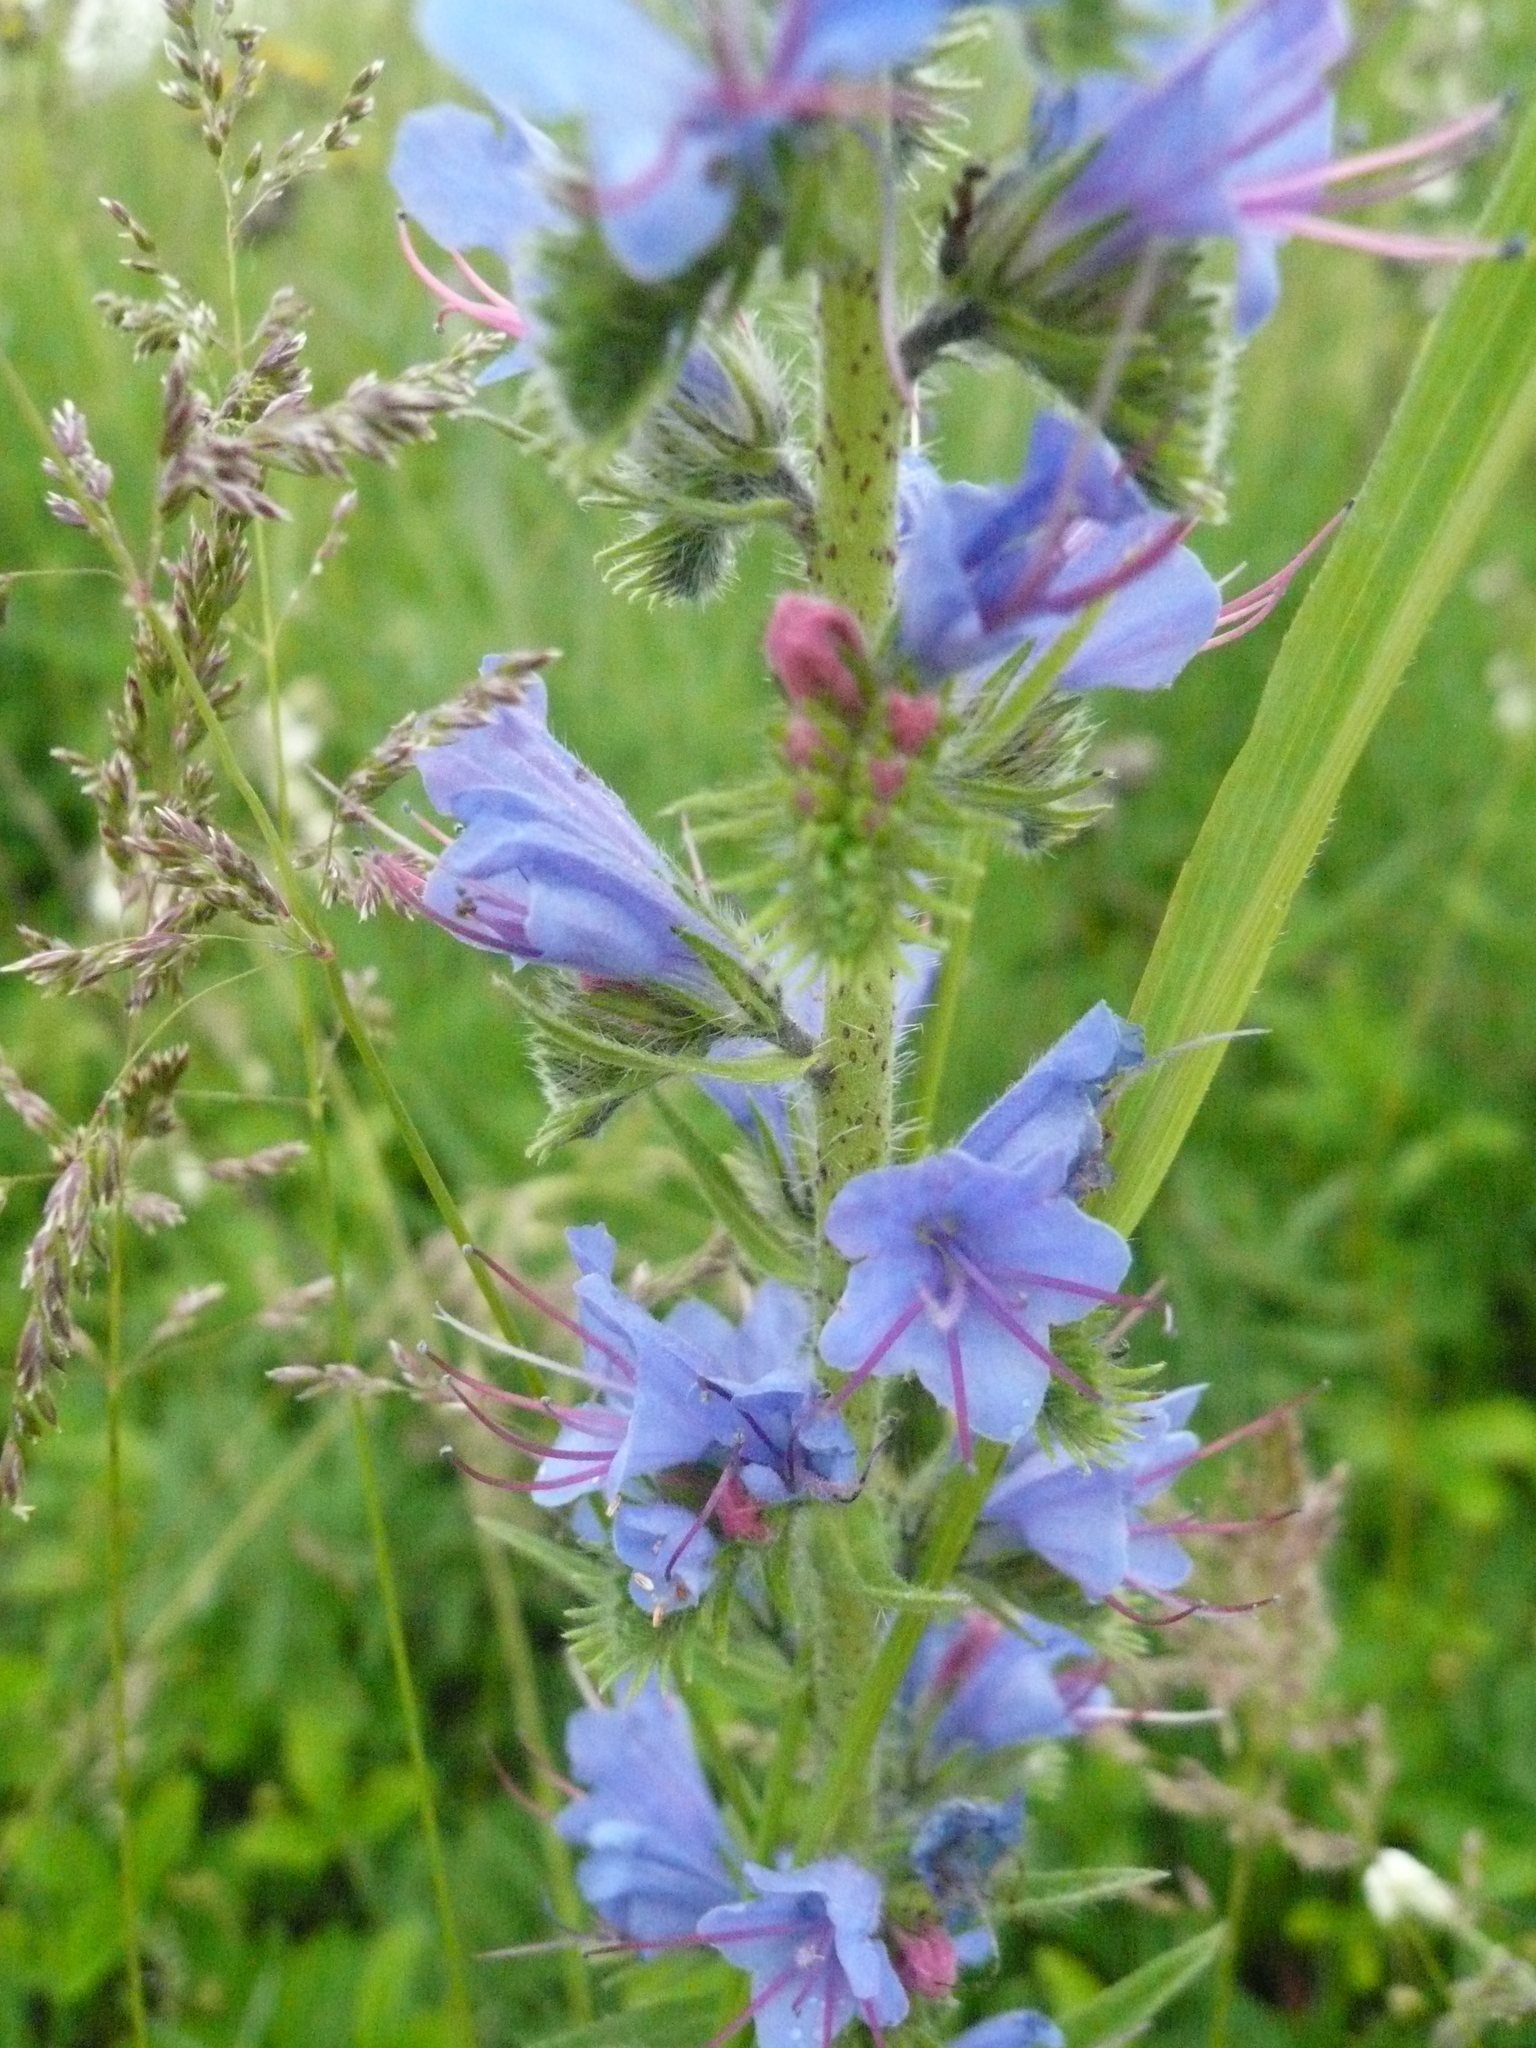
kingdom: Plantae
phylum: Tracheophyta
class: Magnoliopsida
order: Boraginales
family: Boraginaceae
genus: Echium
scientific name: Echium vulgare
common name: Common viper's bugloss
